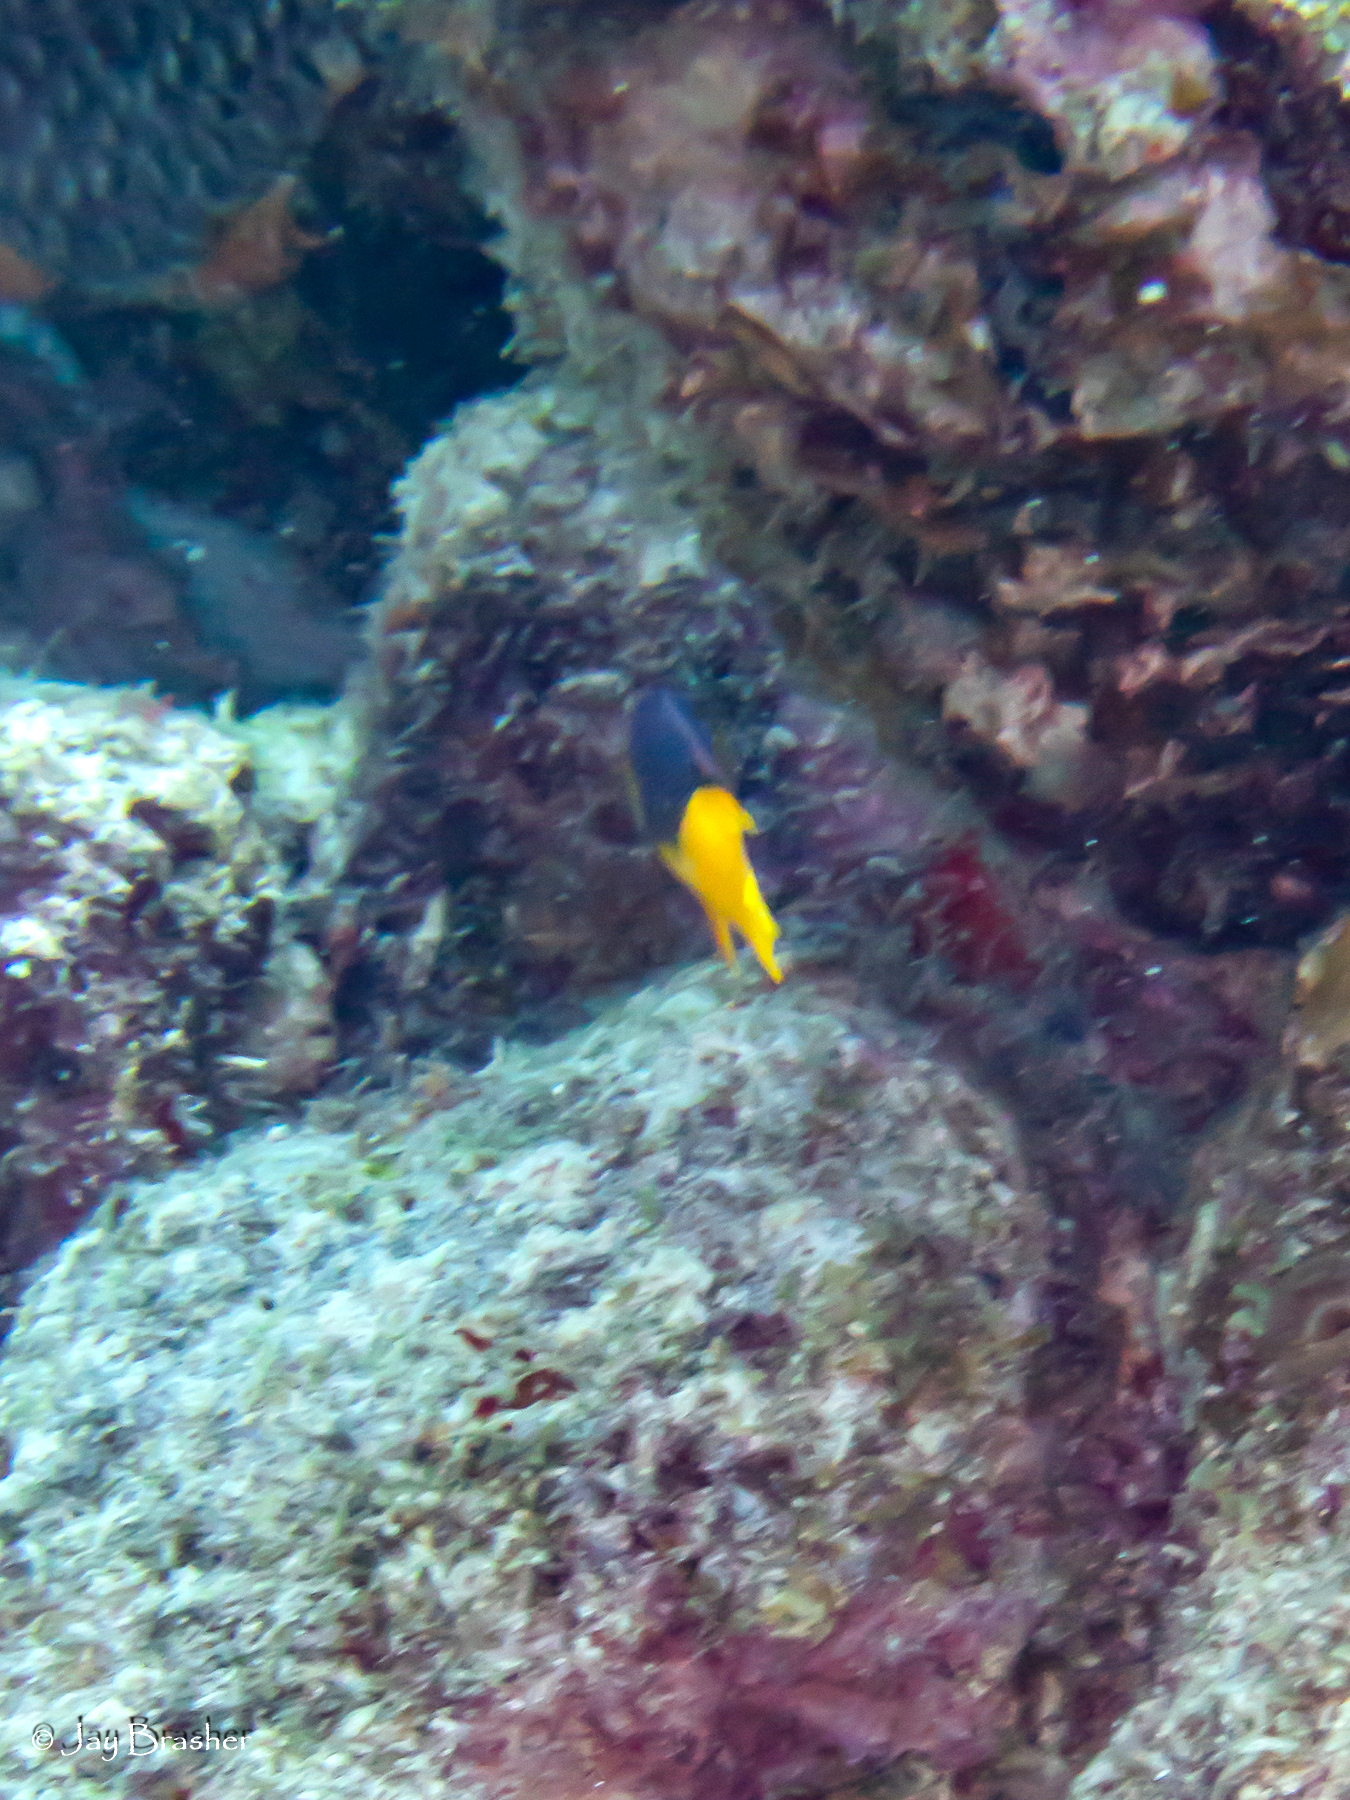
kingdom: Animalia
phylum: Chordata
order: Perciformes
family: Labridae
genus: Bodianus
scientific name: Bodianus rufus
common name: Spanish hogfish
